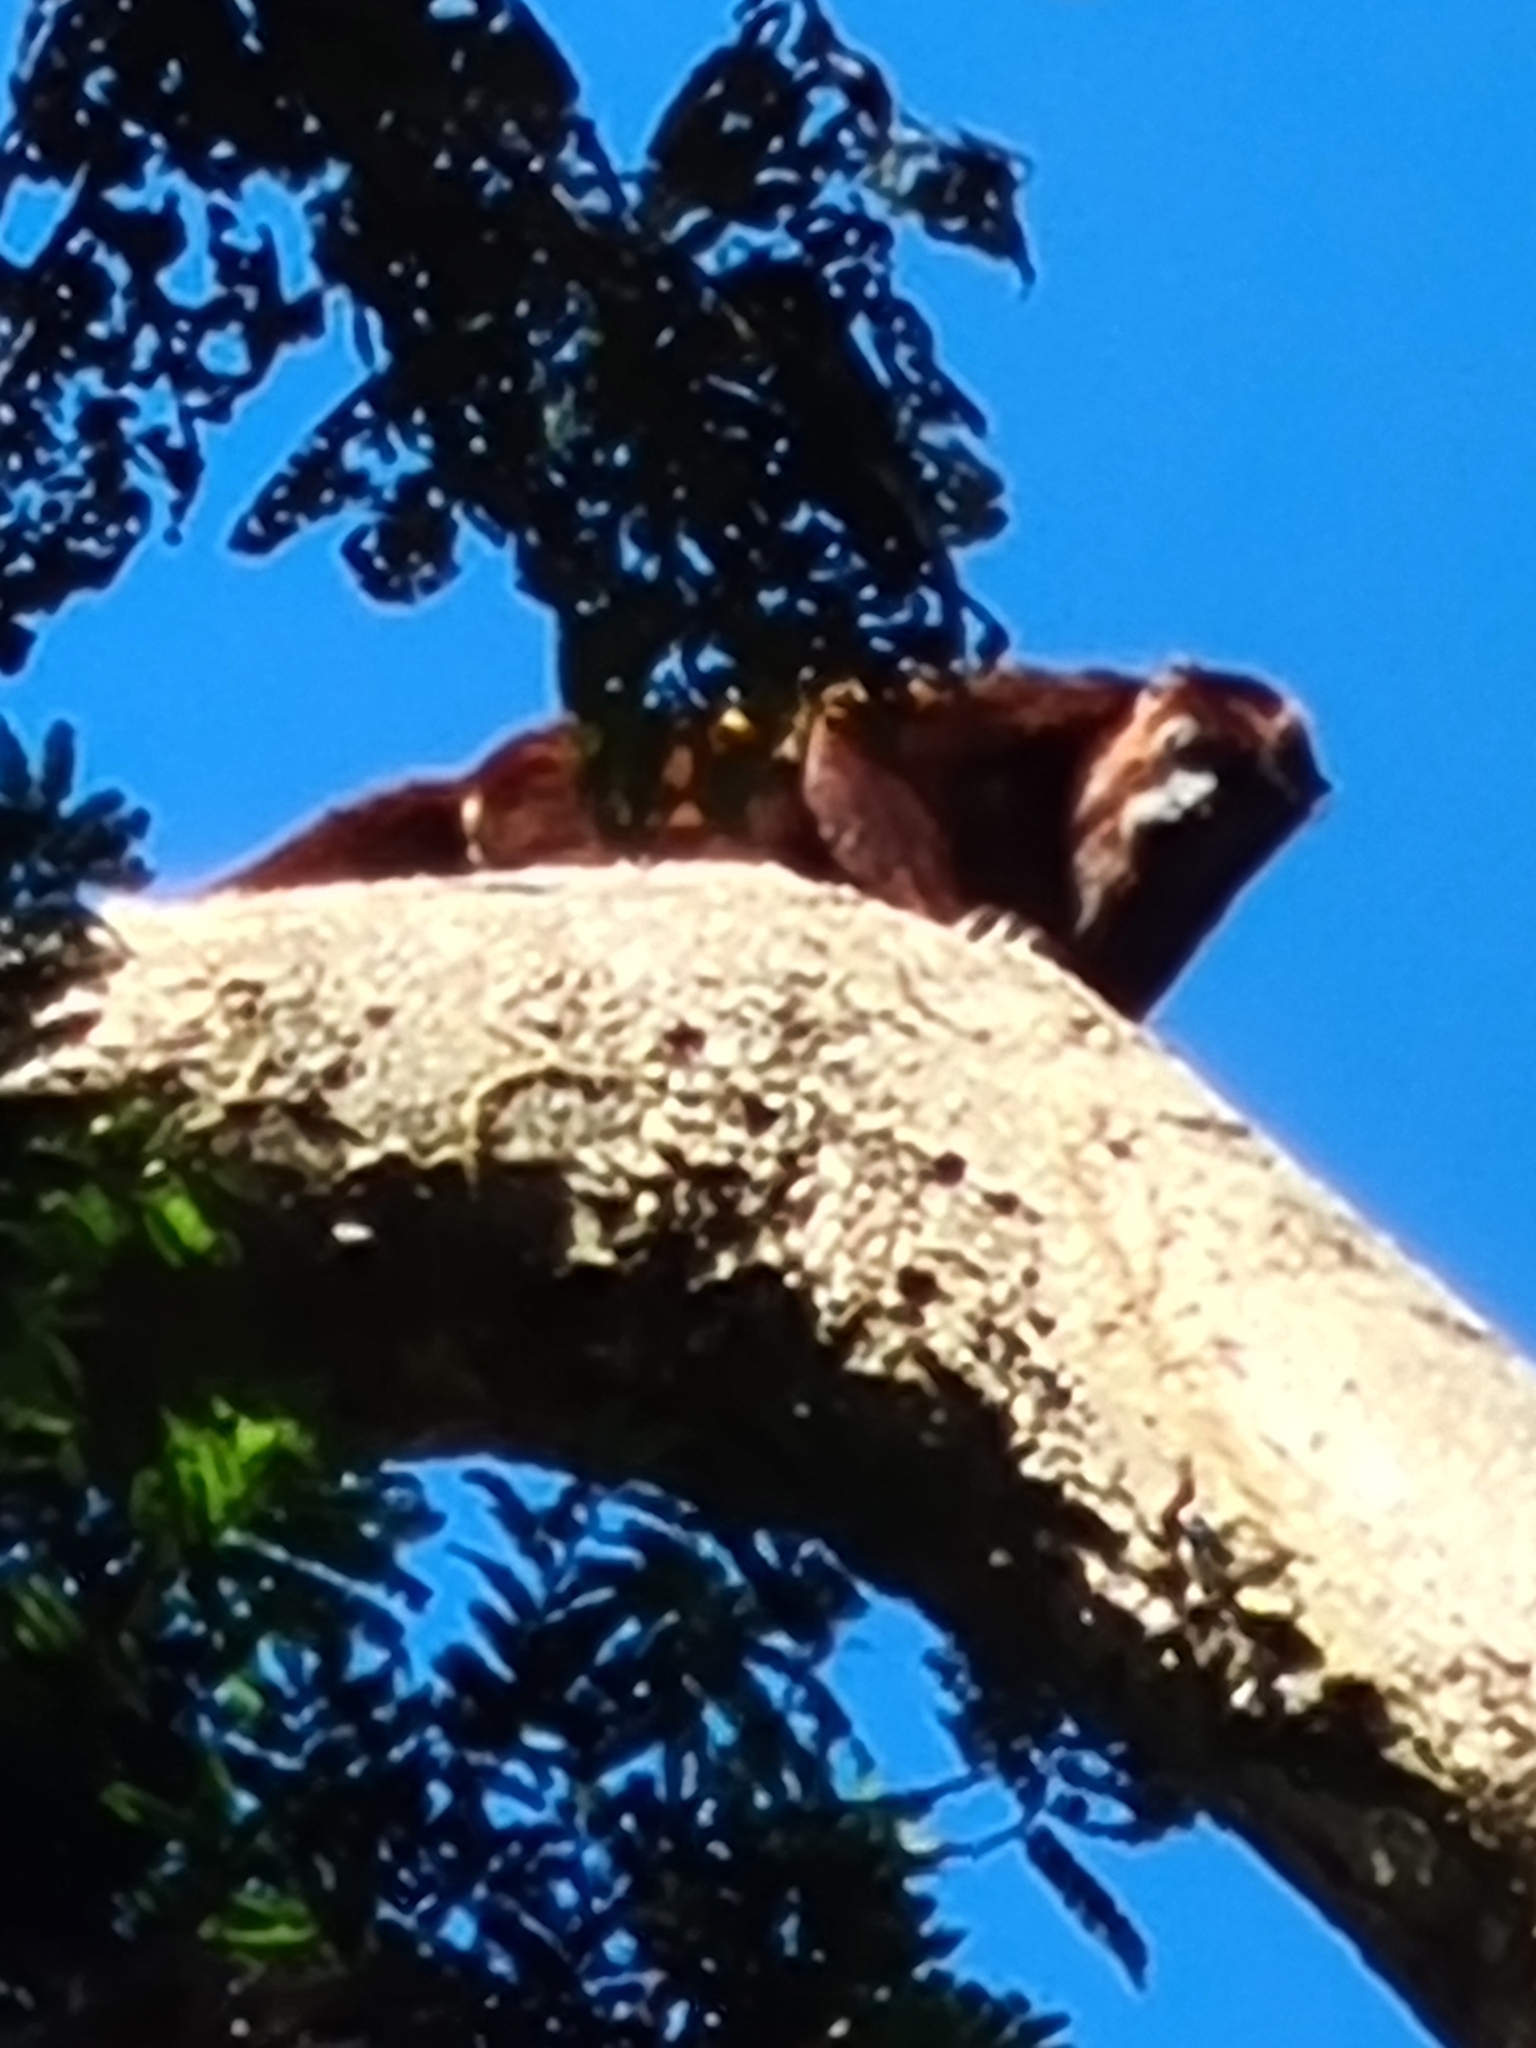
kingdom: Animalia
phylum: Chordata
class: Mammalia
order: Primates
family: Atelidae
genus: Alouatta
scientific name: Alouatta macconnelli
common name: Guyanan red howler
